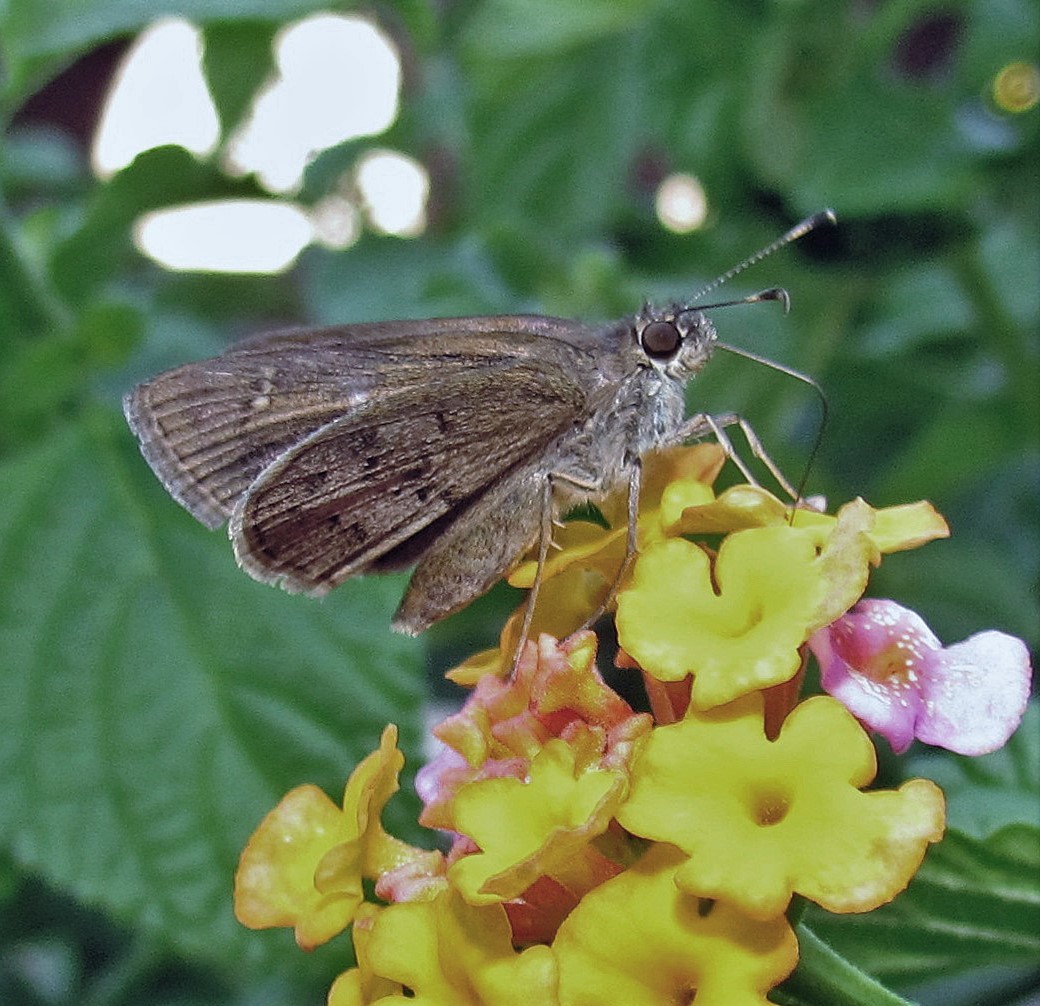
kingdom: Animalia
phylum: Arthropoda
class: Insecta
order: Lepidoptera
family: Hesperiidae
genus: Cymaenes
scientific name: Cymaenes gisca
